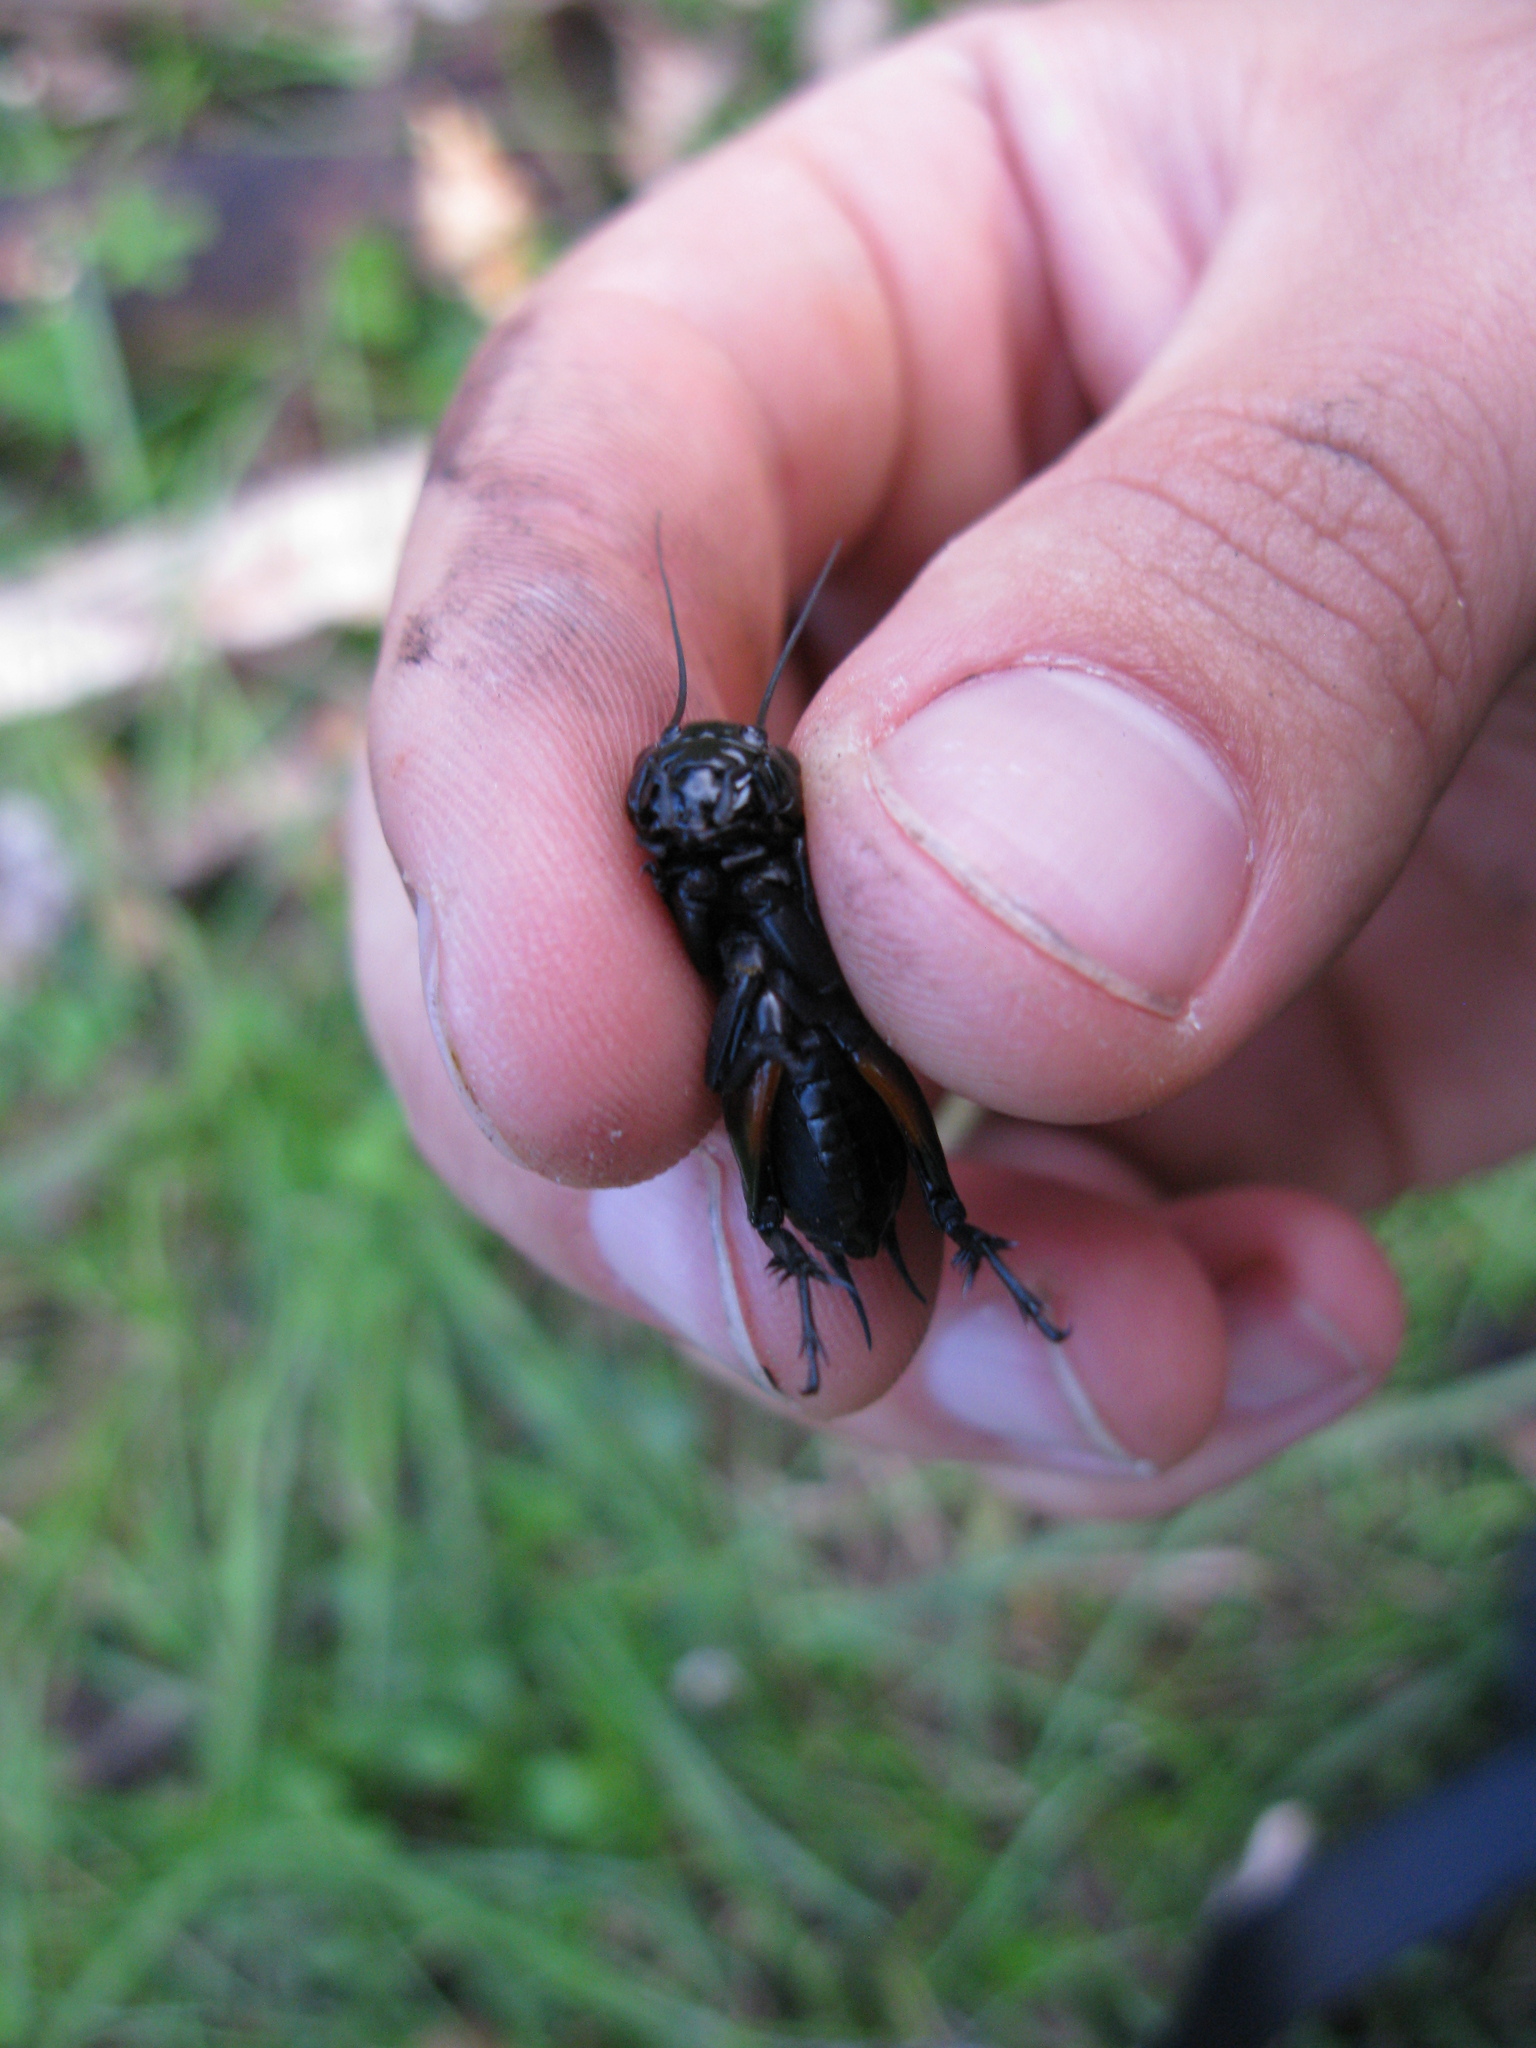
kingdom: Animalia
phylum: Arthropoda
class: Insecta
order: Orthoptera
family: Gryllidae
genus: Gryllus
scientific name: Gryllus campestris
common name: Field cricket
